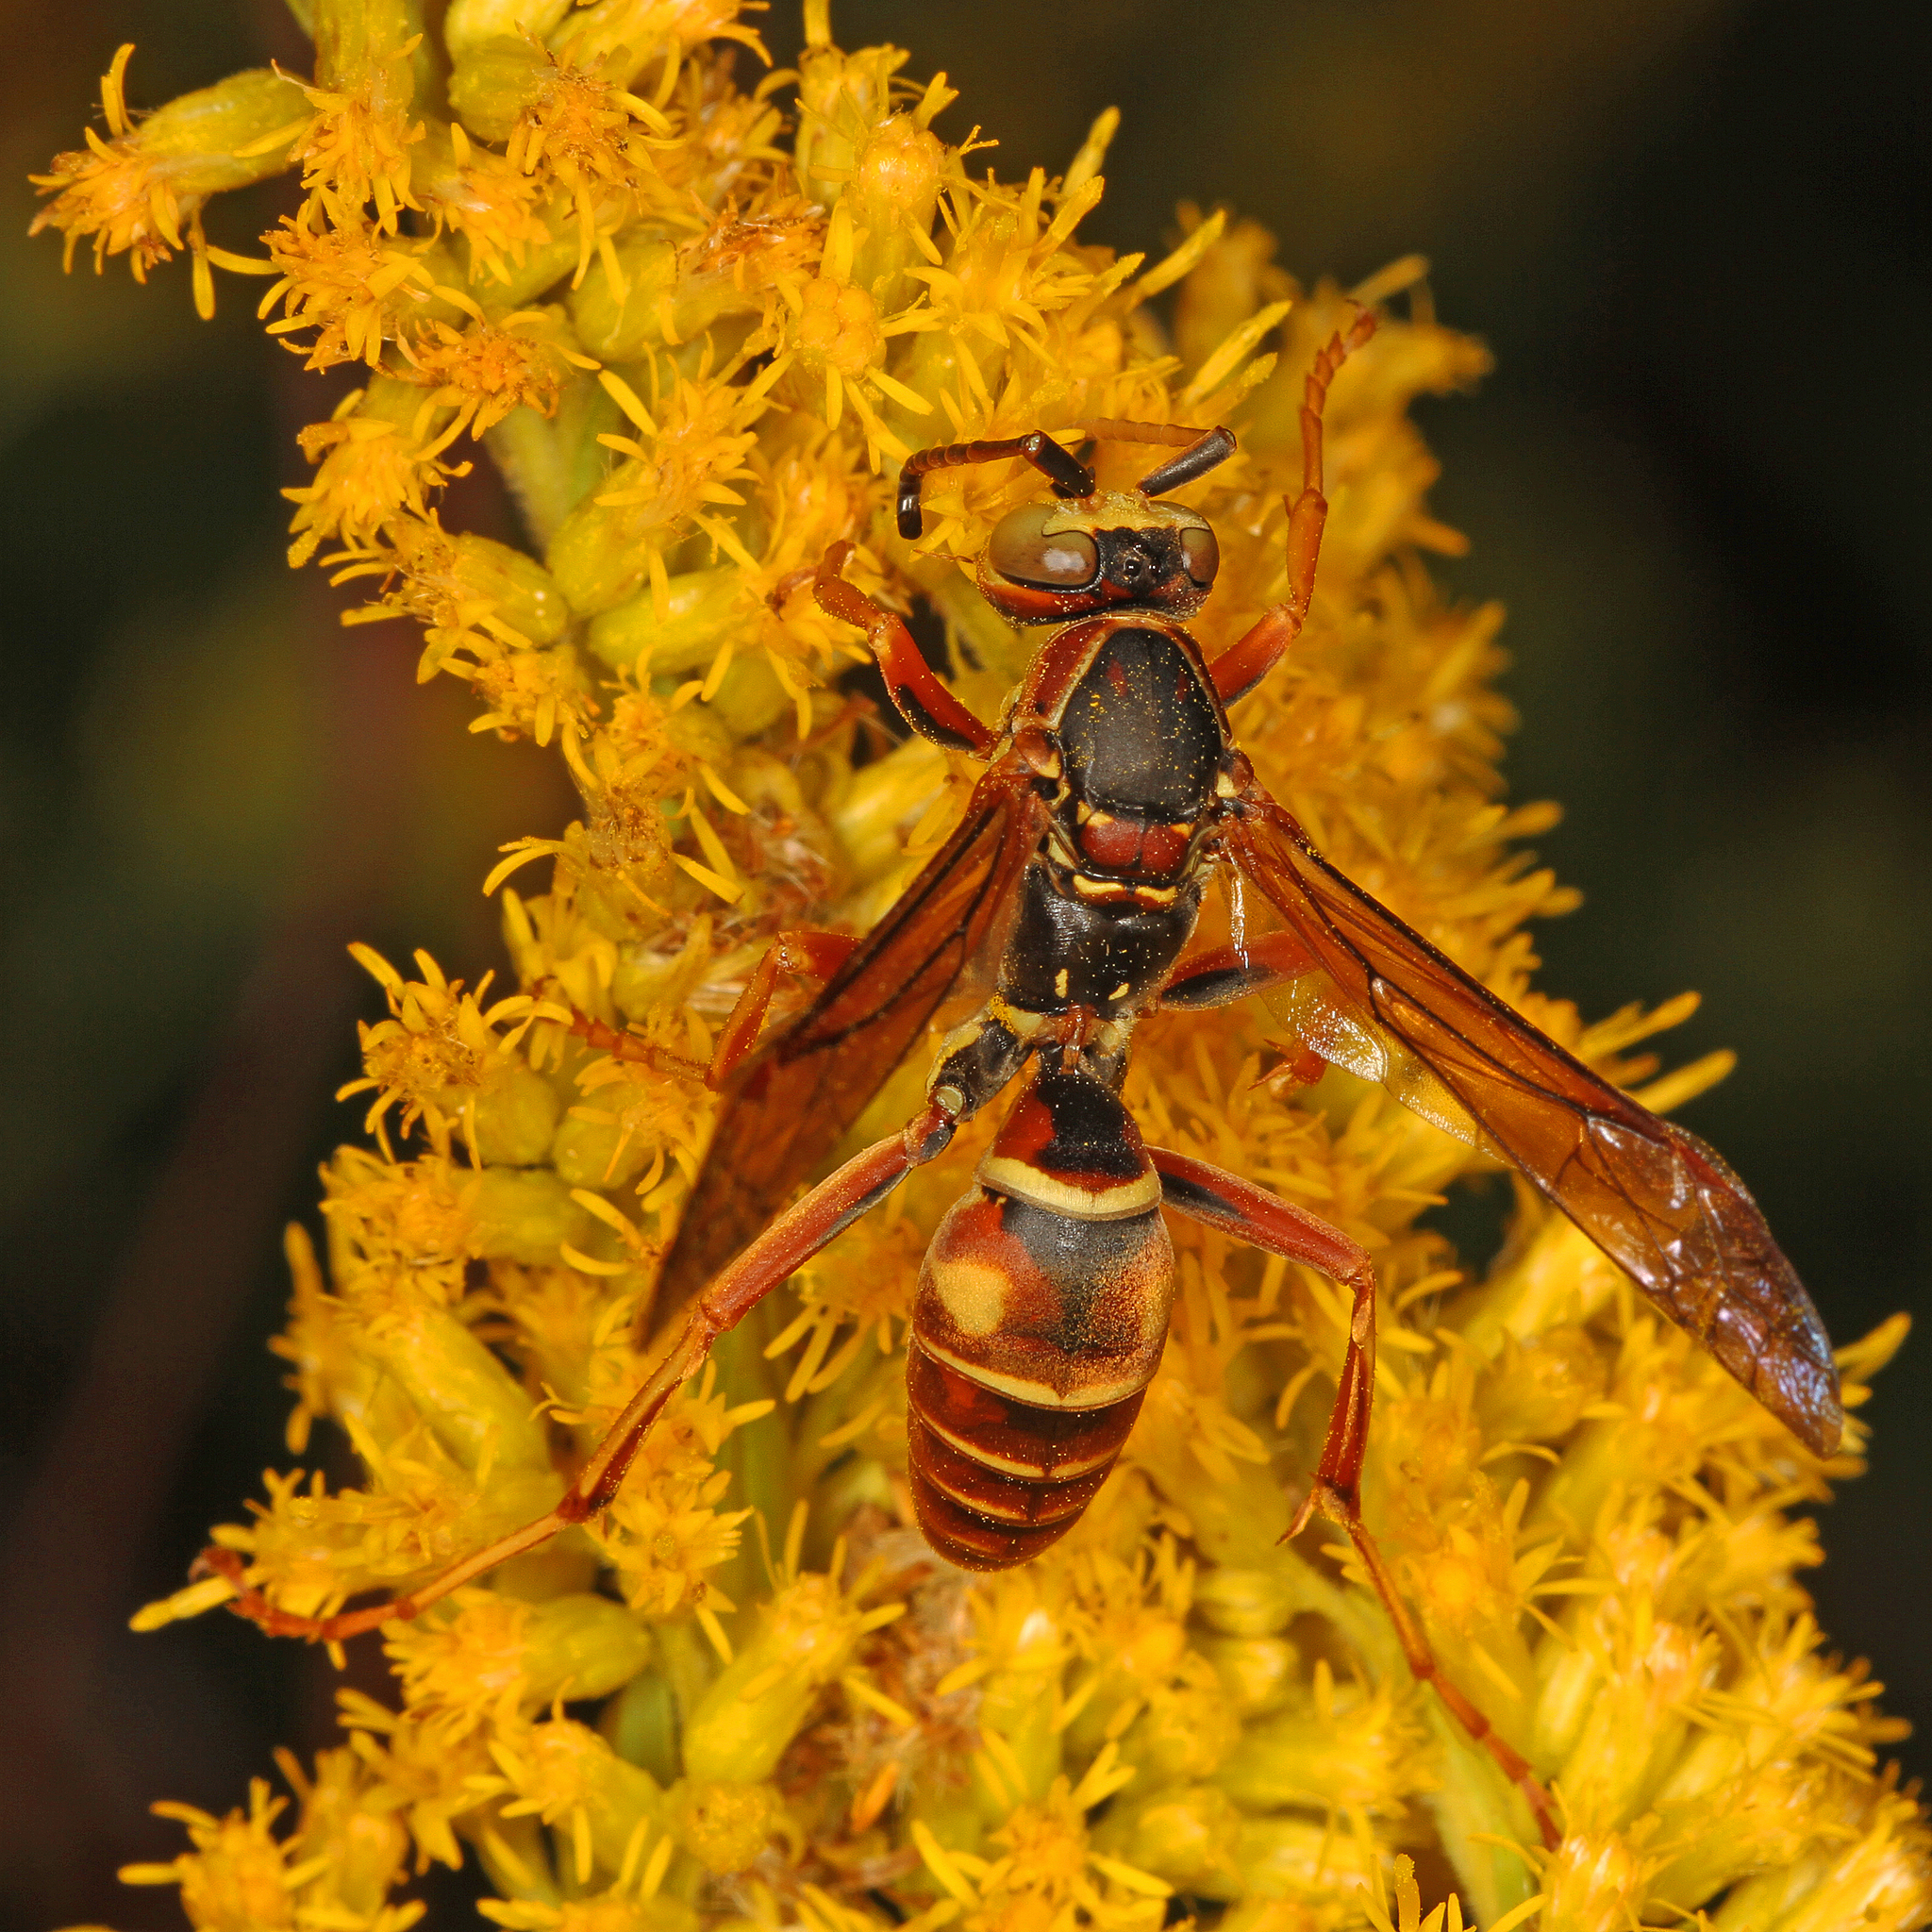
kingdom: Animalia
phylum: Arthropoda
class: Insecta
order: Hymenoptera
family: Eumenidae
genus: Polistes
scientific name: Polistes fuscatus
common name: Dark paper wasp
